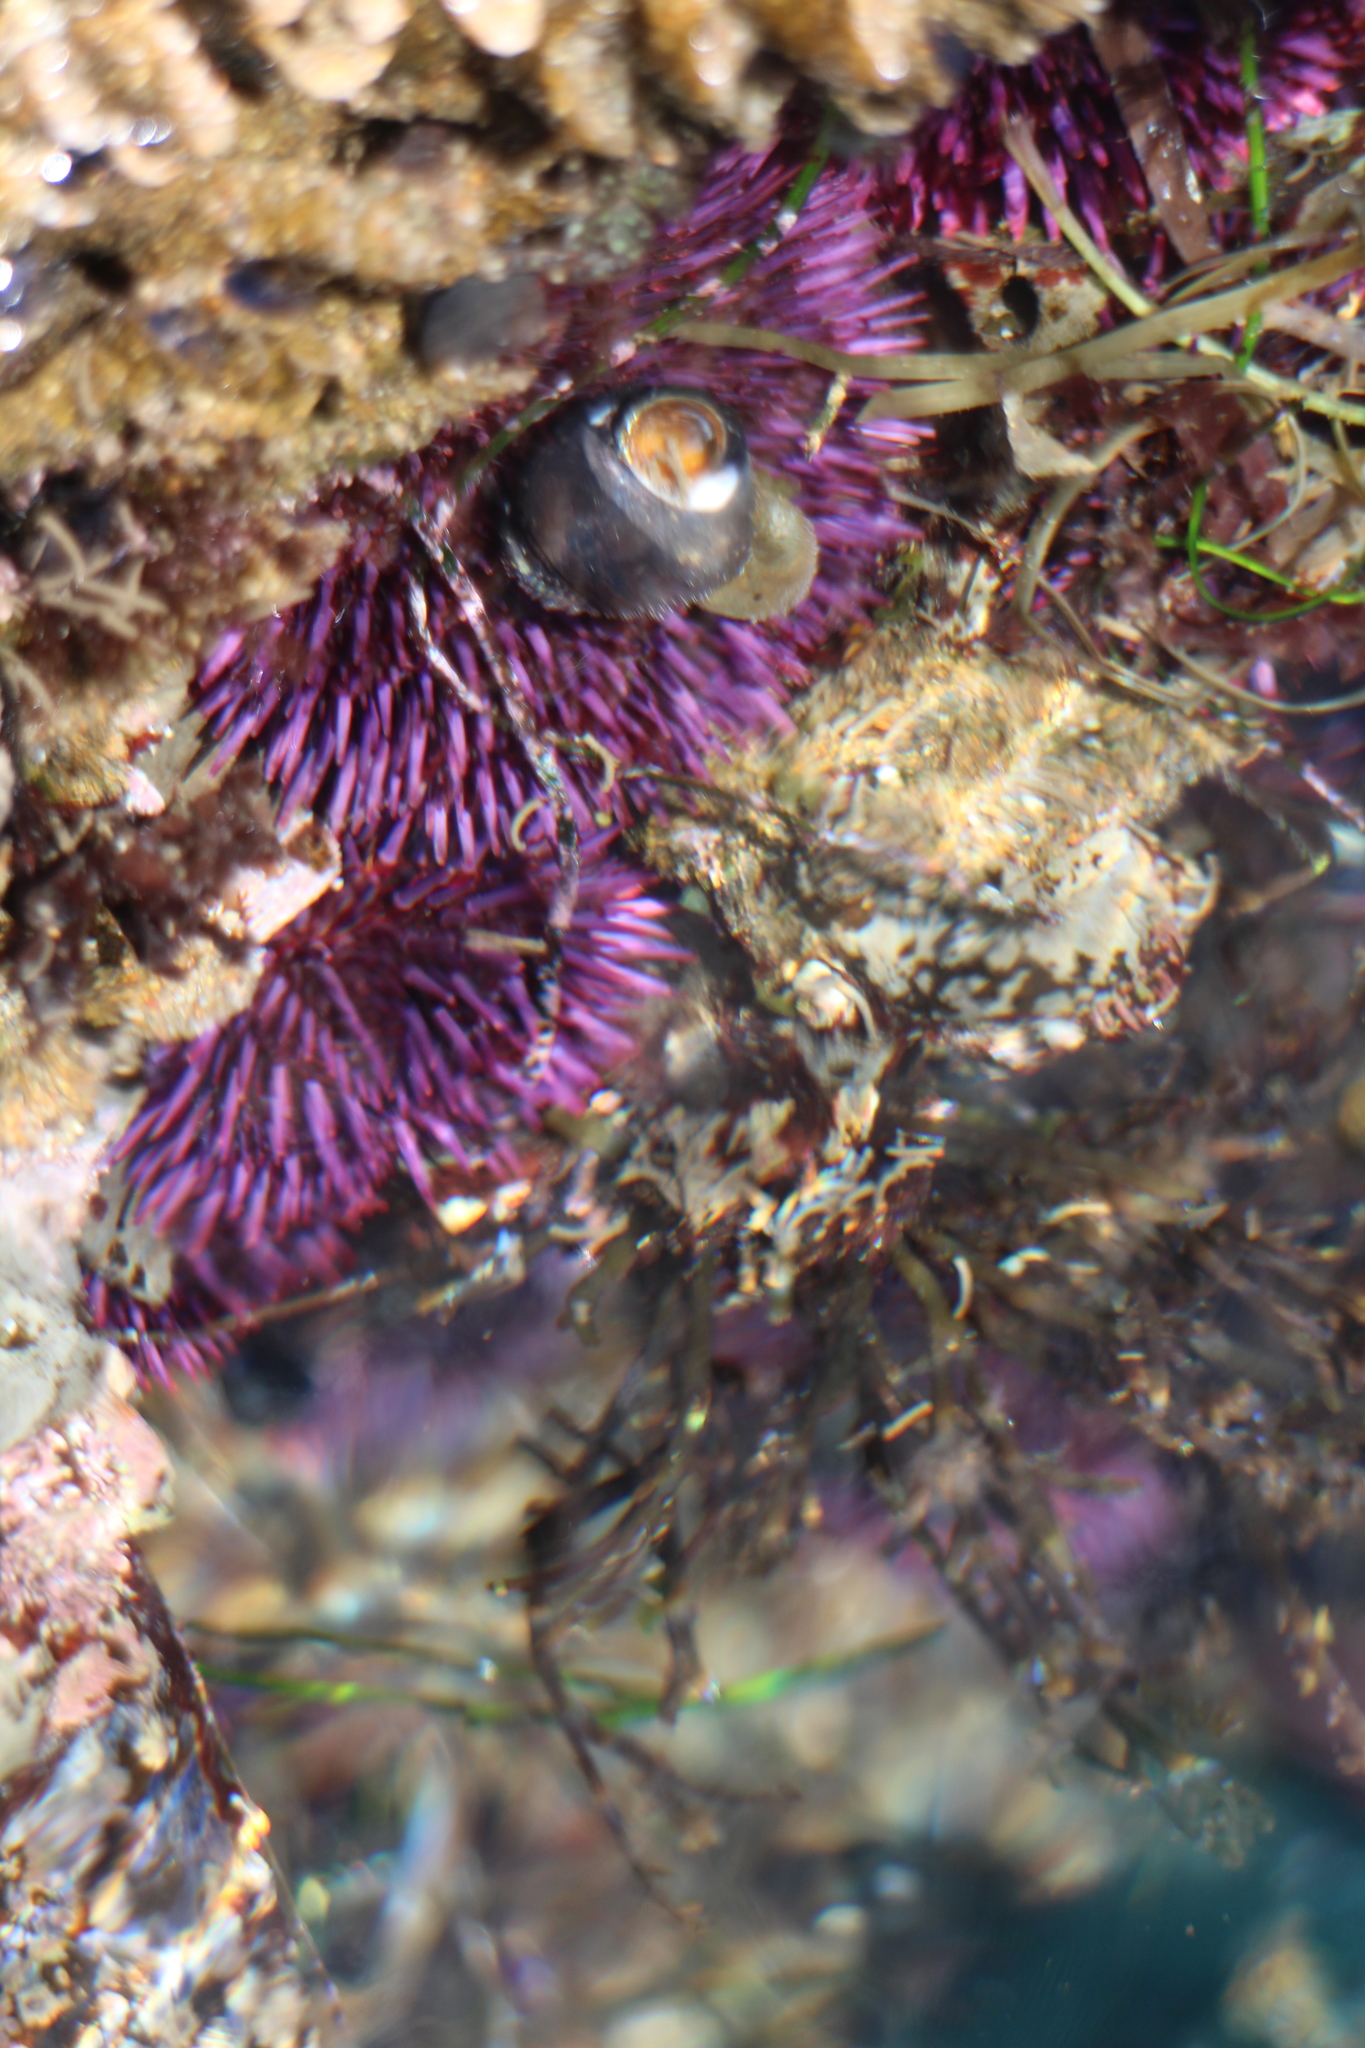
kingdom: Animalia
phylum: Echinodermata
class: Echinoidea
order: Camarodonta
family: Strongylocentrotidae
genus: Strongylocentrotus
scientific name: Strongylocentrotus purpuratus
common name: Purple sea urchin
